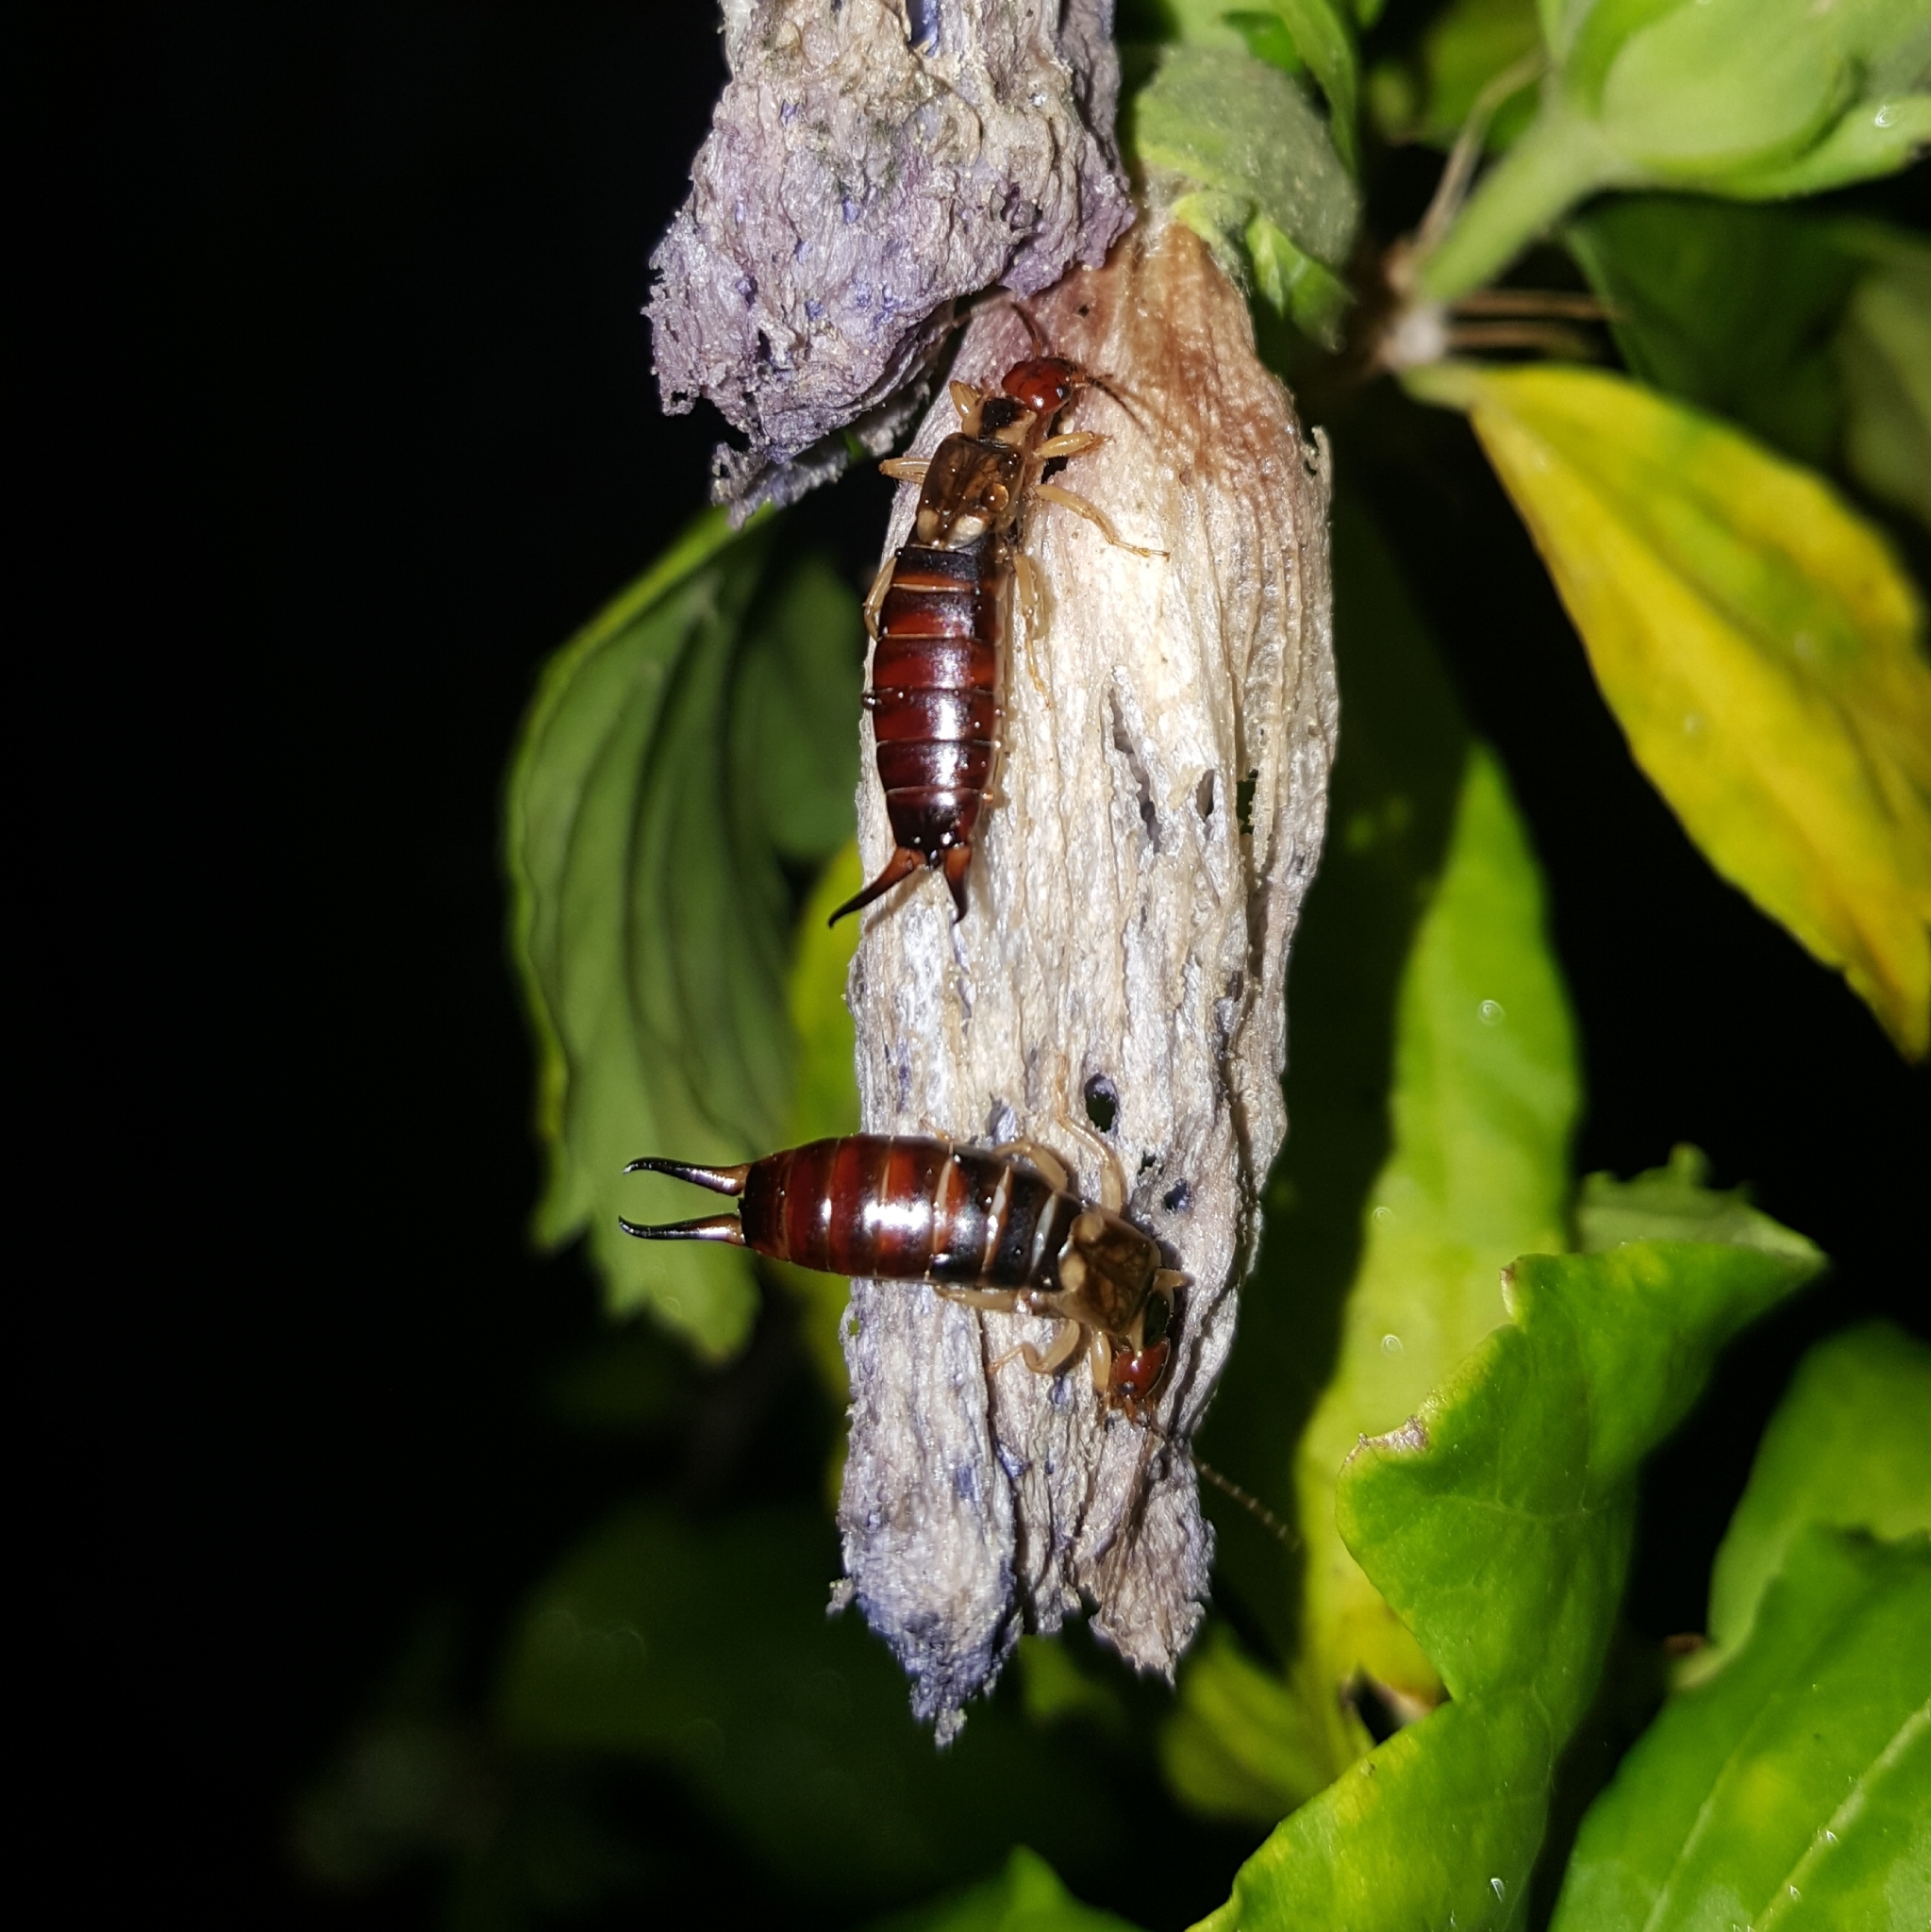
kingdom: Animalia
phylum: Arthropoda
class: Insecta
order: Dermaptera
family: Forficulidae
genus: Forficula
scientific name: Forficula
